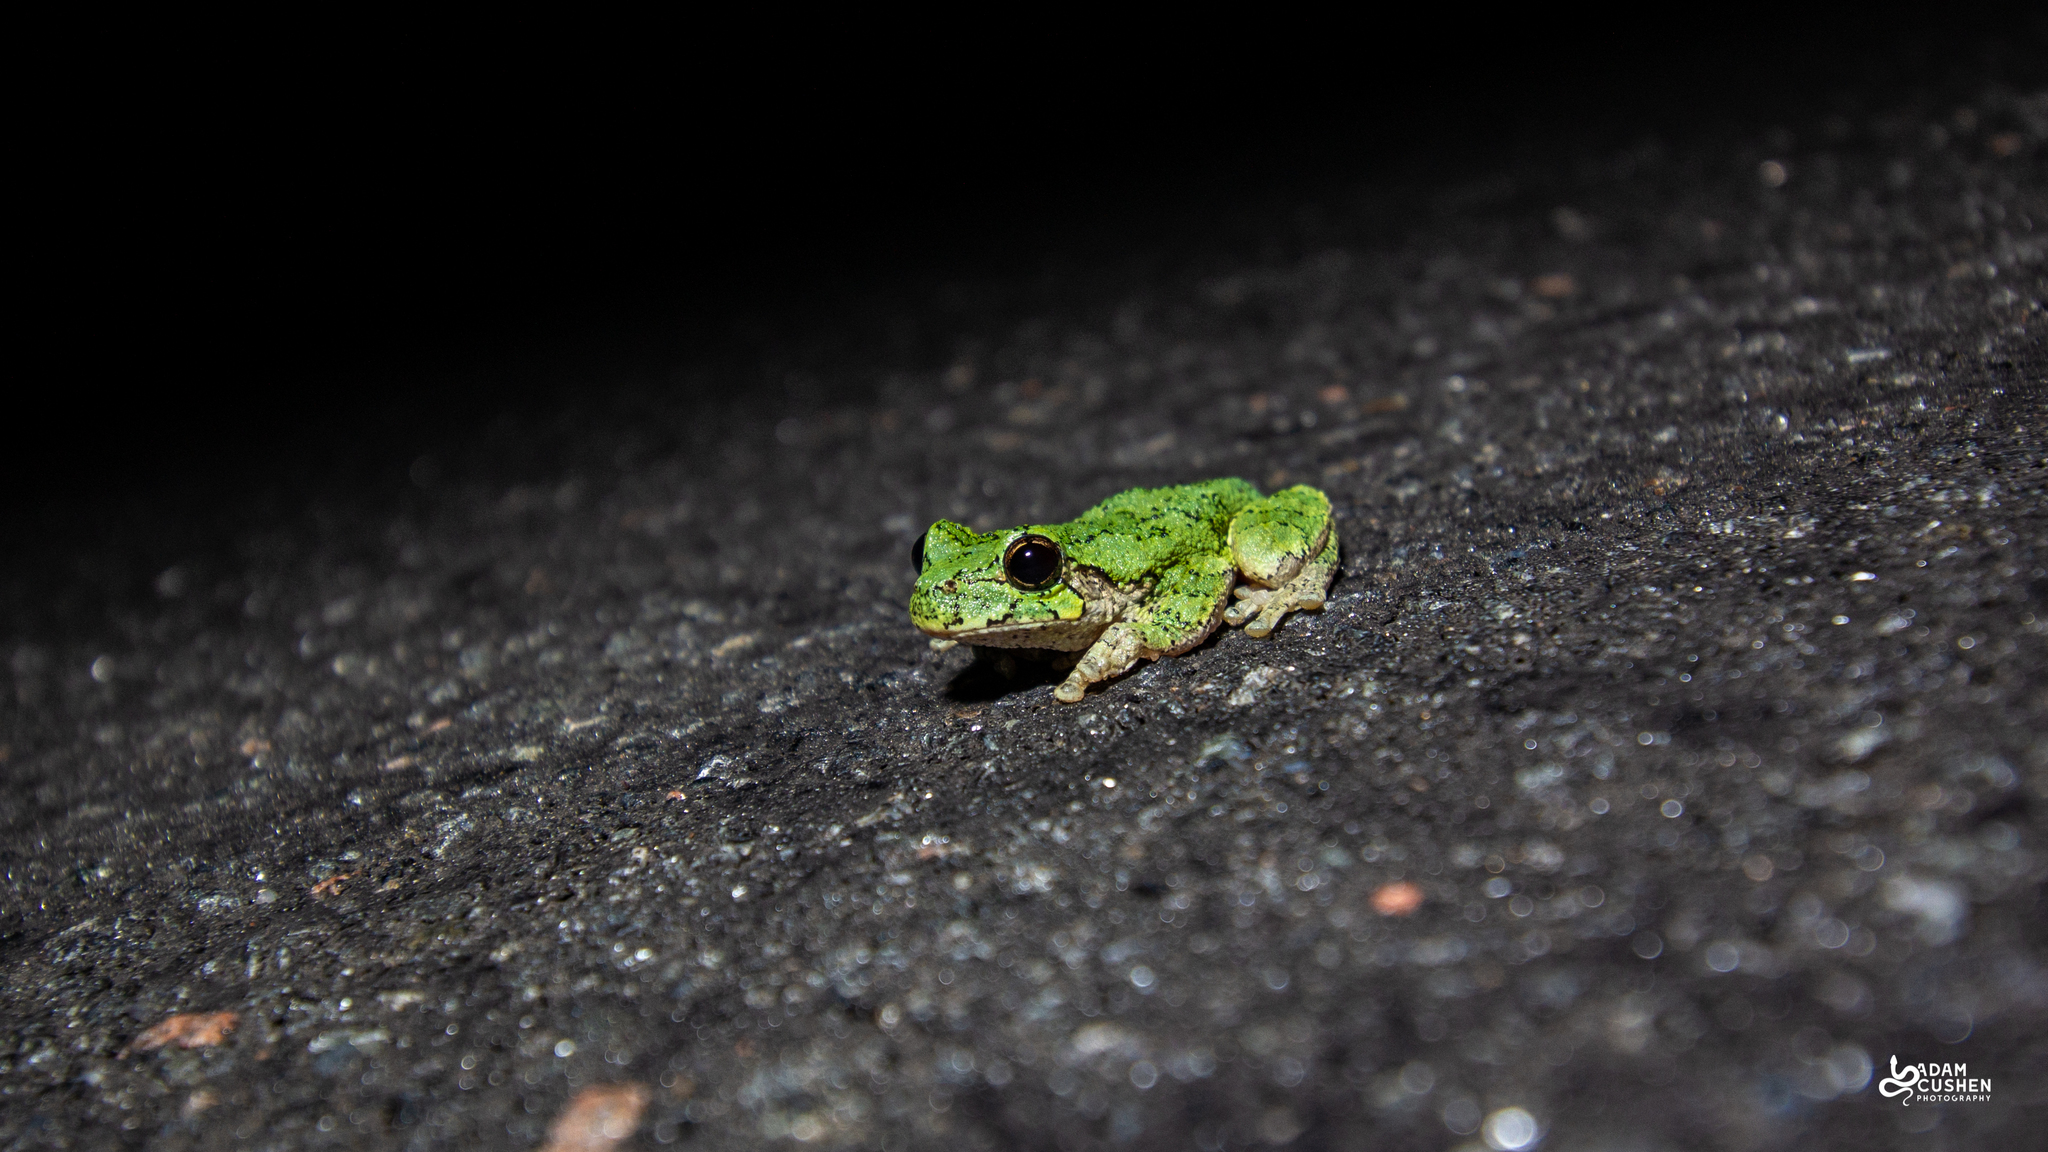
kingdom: Animalia
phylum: Chordata
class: Amphibia
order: Anura
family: Hylidae
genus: Dryophytes
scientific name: Dryophytes versicolor
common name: Gray treefrog
